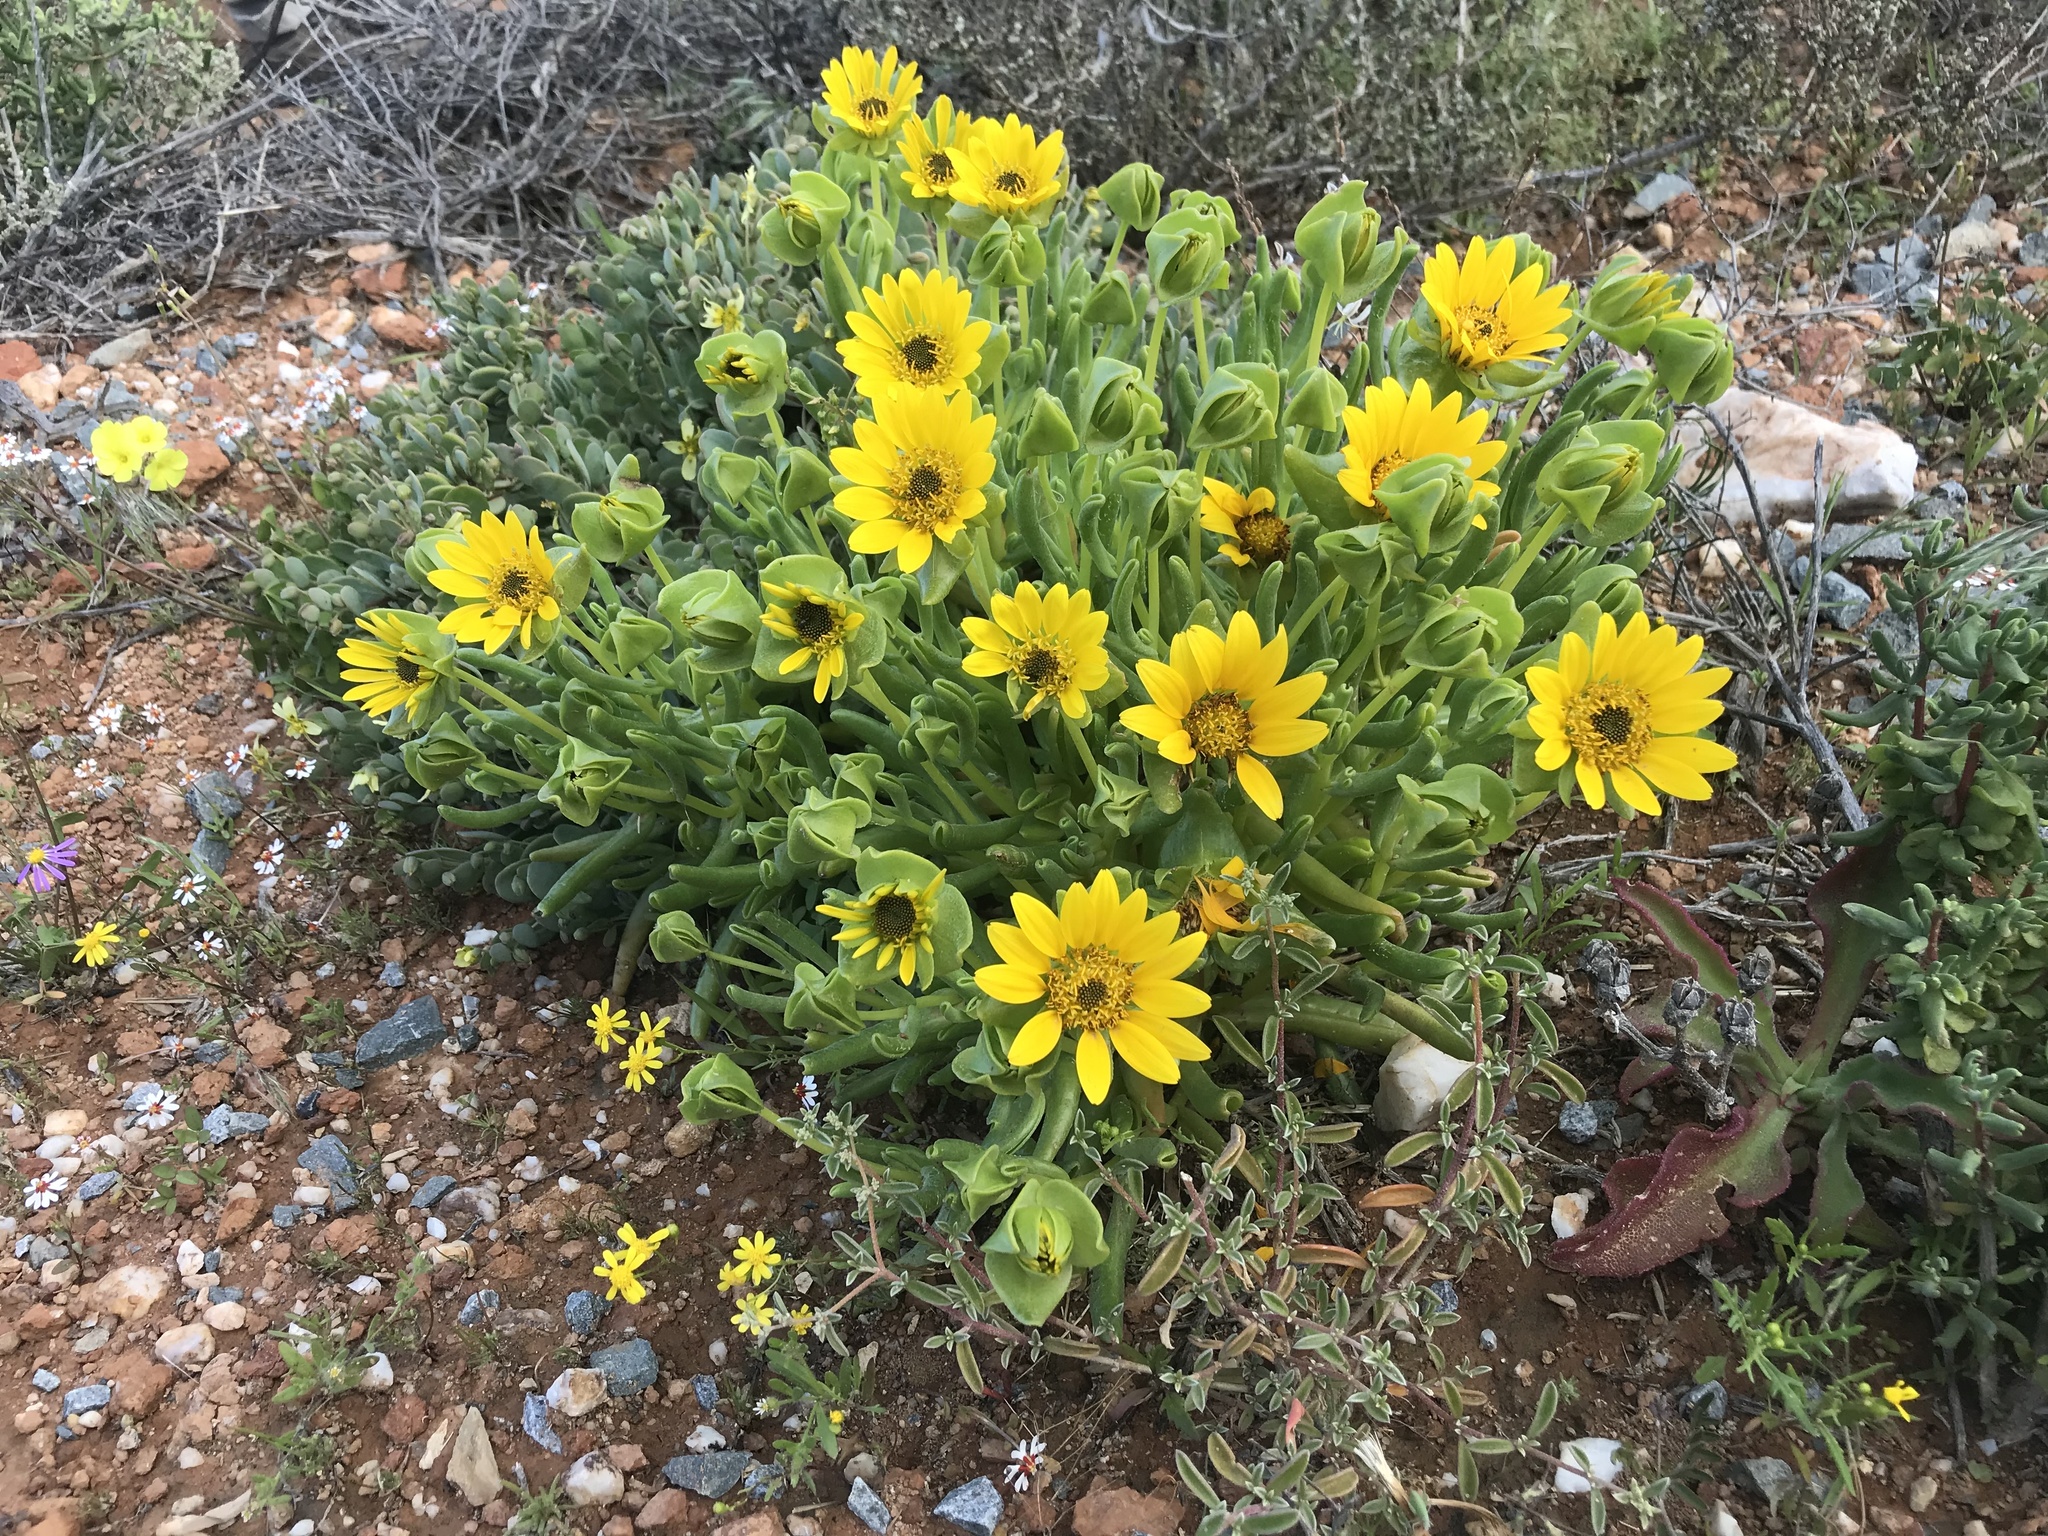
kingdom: Plantae
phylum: Tracheophyta
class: Magnoliopsida
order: Asterales
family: Asteraceae
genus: Didelta
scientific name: Didelta carnosa
